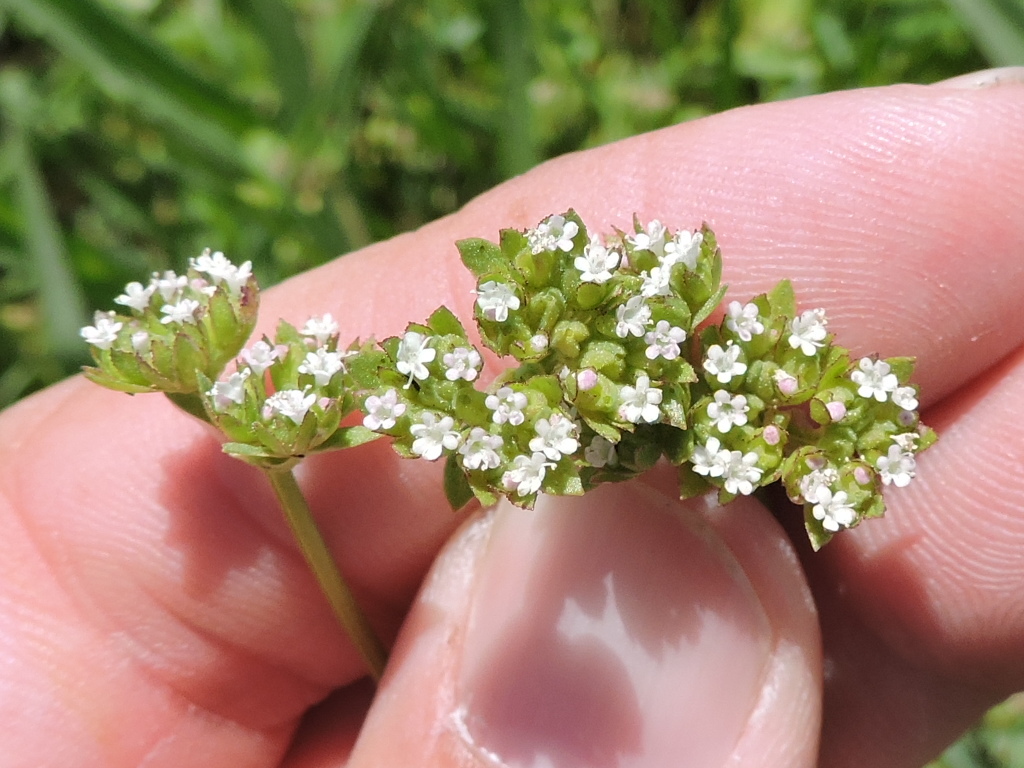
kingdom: Plantae
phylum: Tracheophyta
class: Magnoliopsida
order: Dipsacales
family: Caprifoliaceae
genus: Valerianella
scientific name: Valerianella radiata
